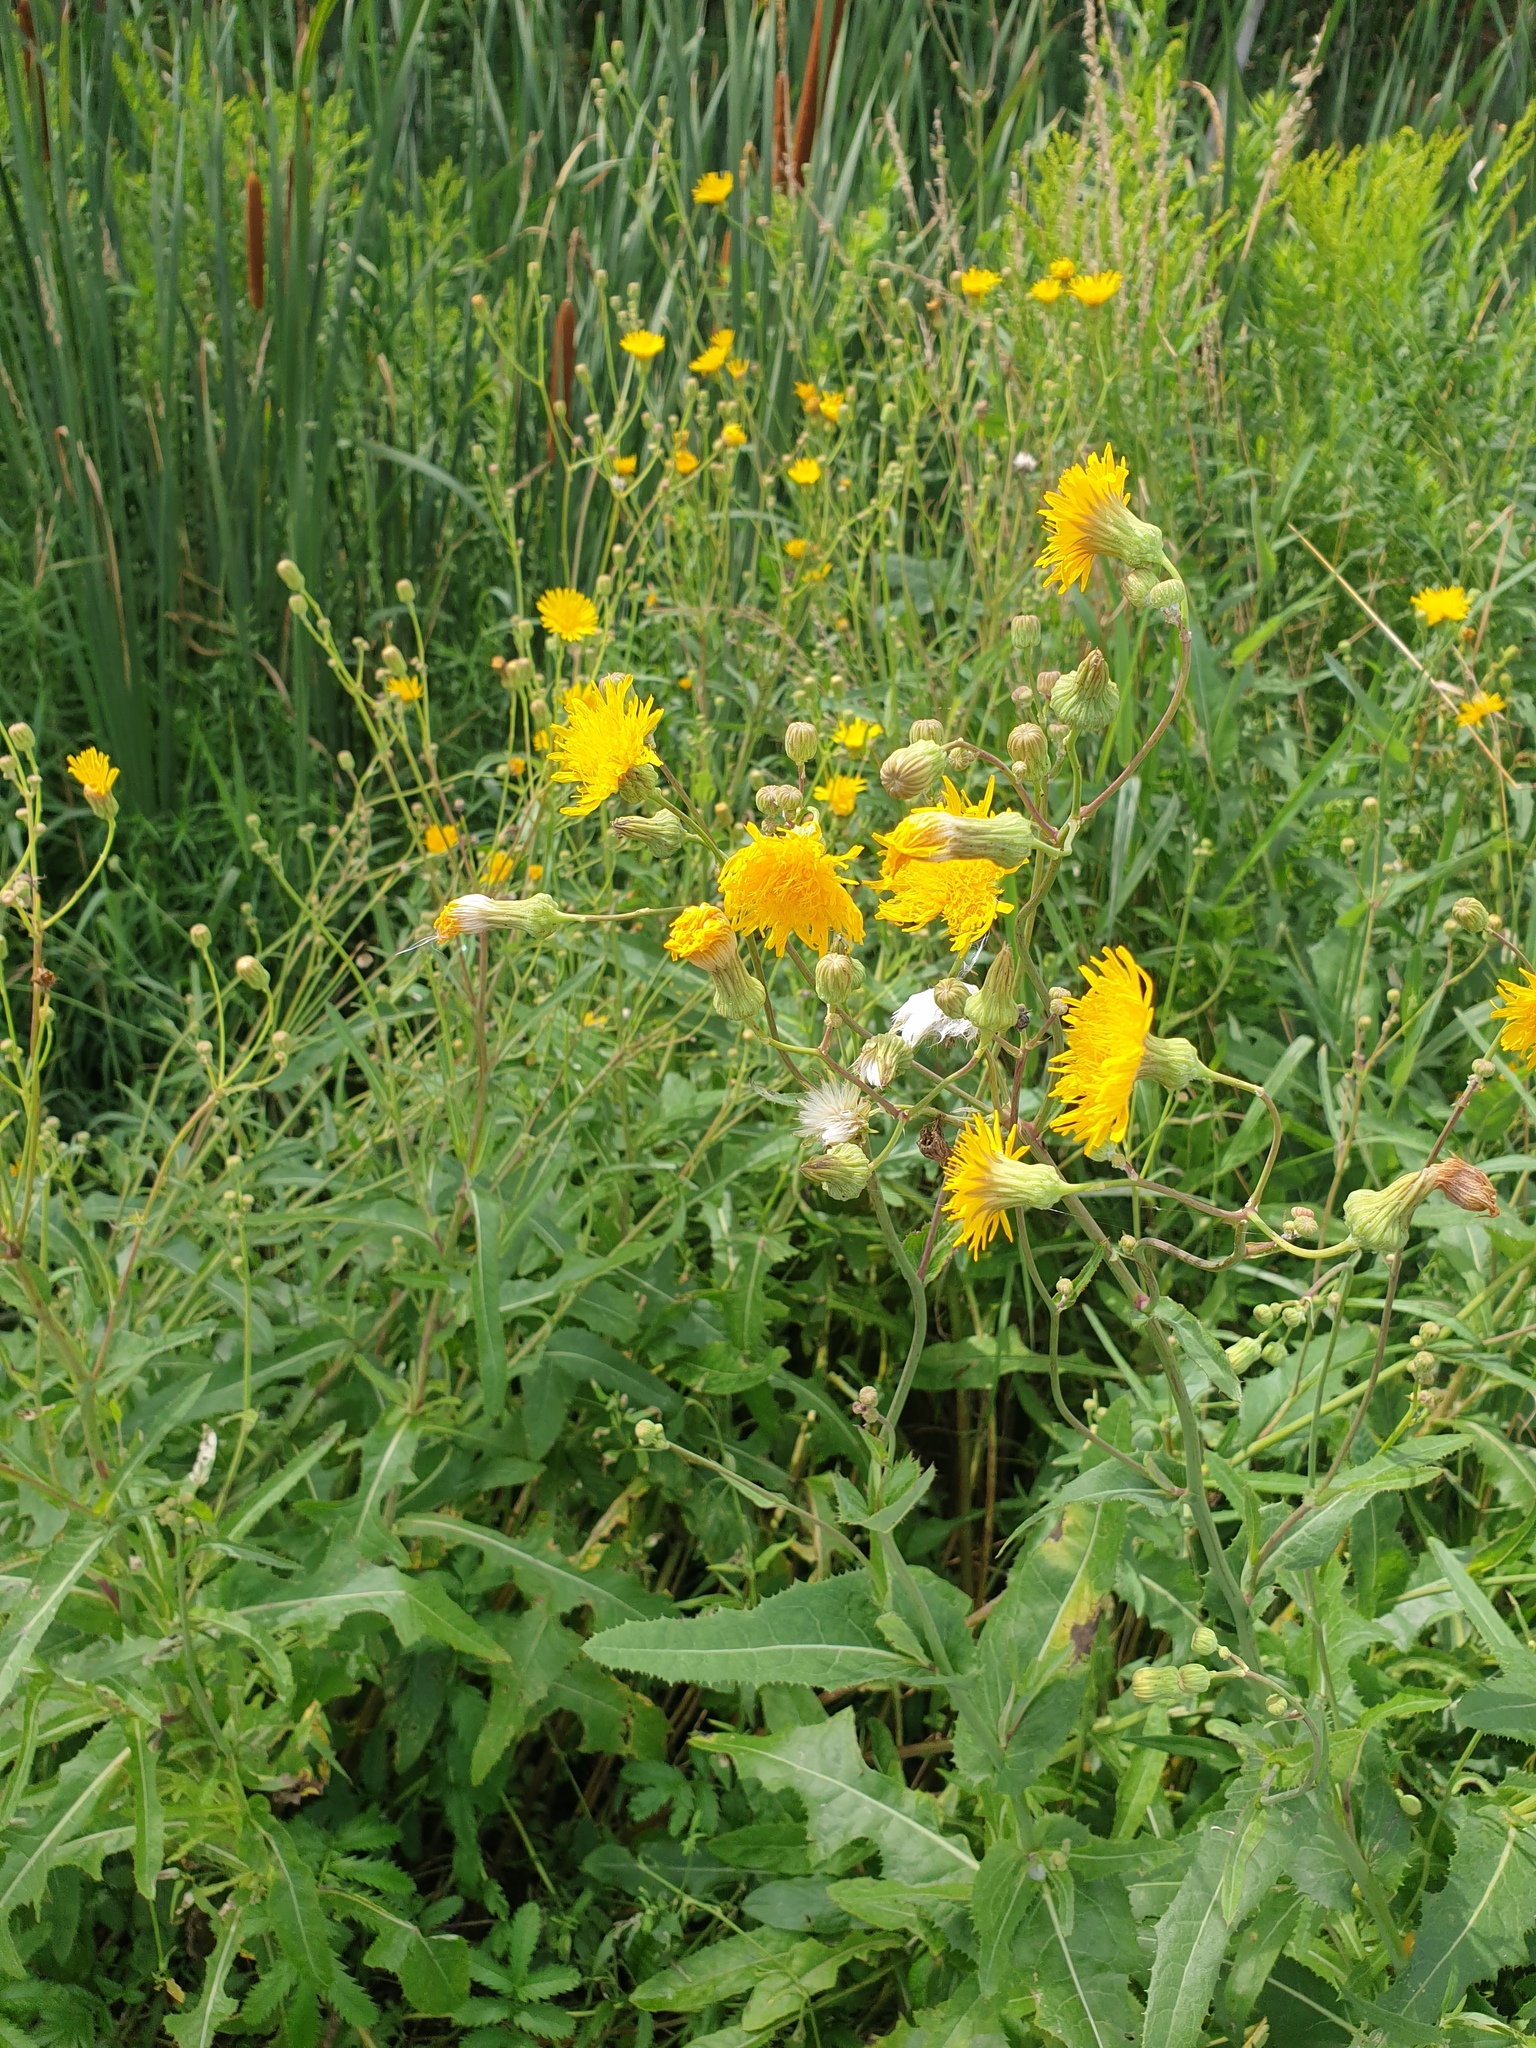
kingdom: Plantae
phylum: Tracheophyta
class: Magnoliopsida
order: Asterales
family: Asteraceae
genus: Sonchus
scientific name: Sonchus arvensis
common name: Perennial sow-thistle
